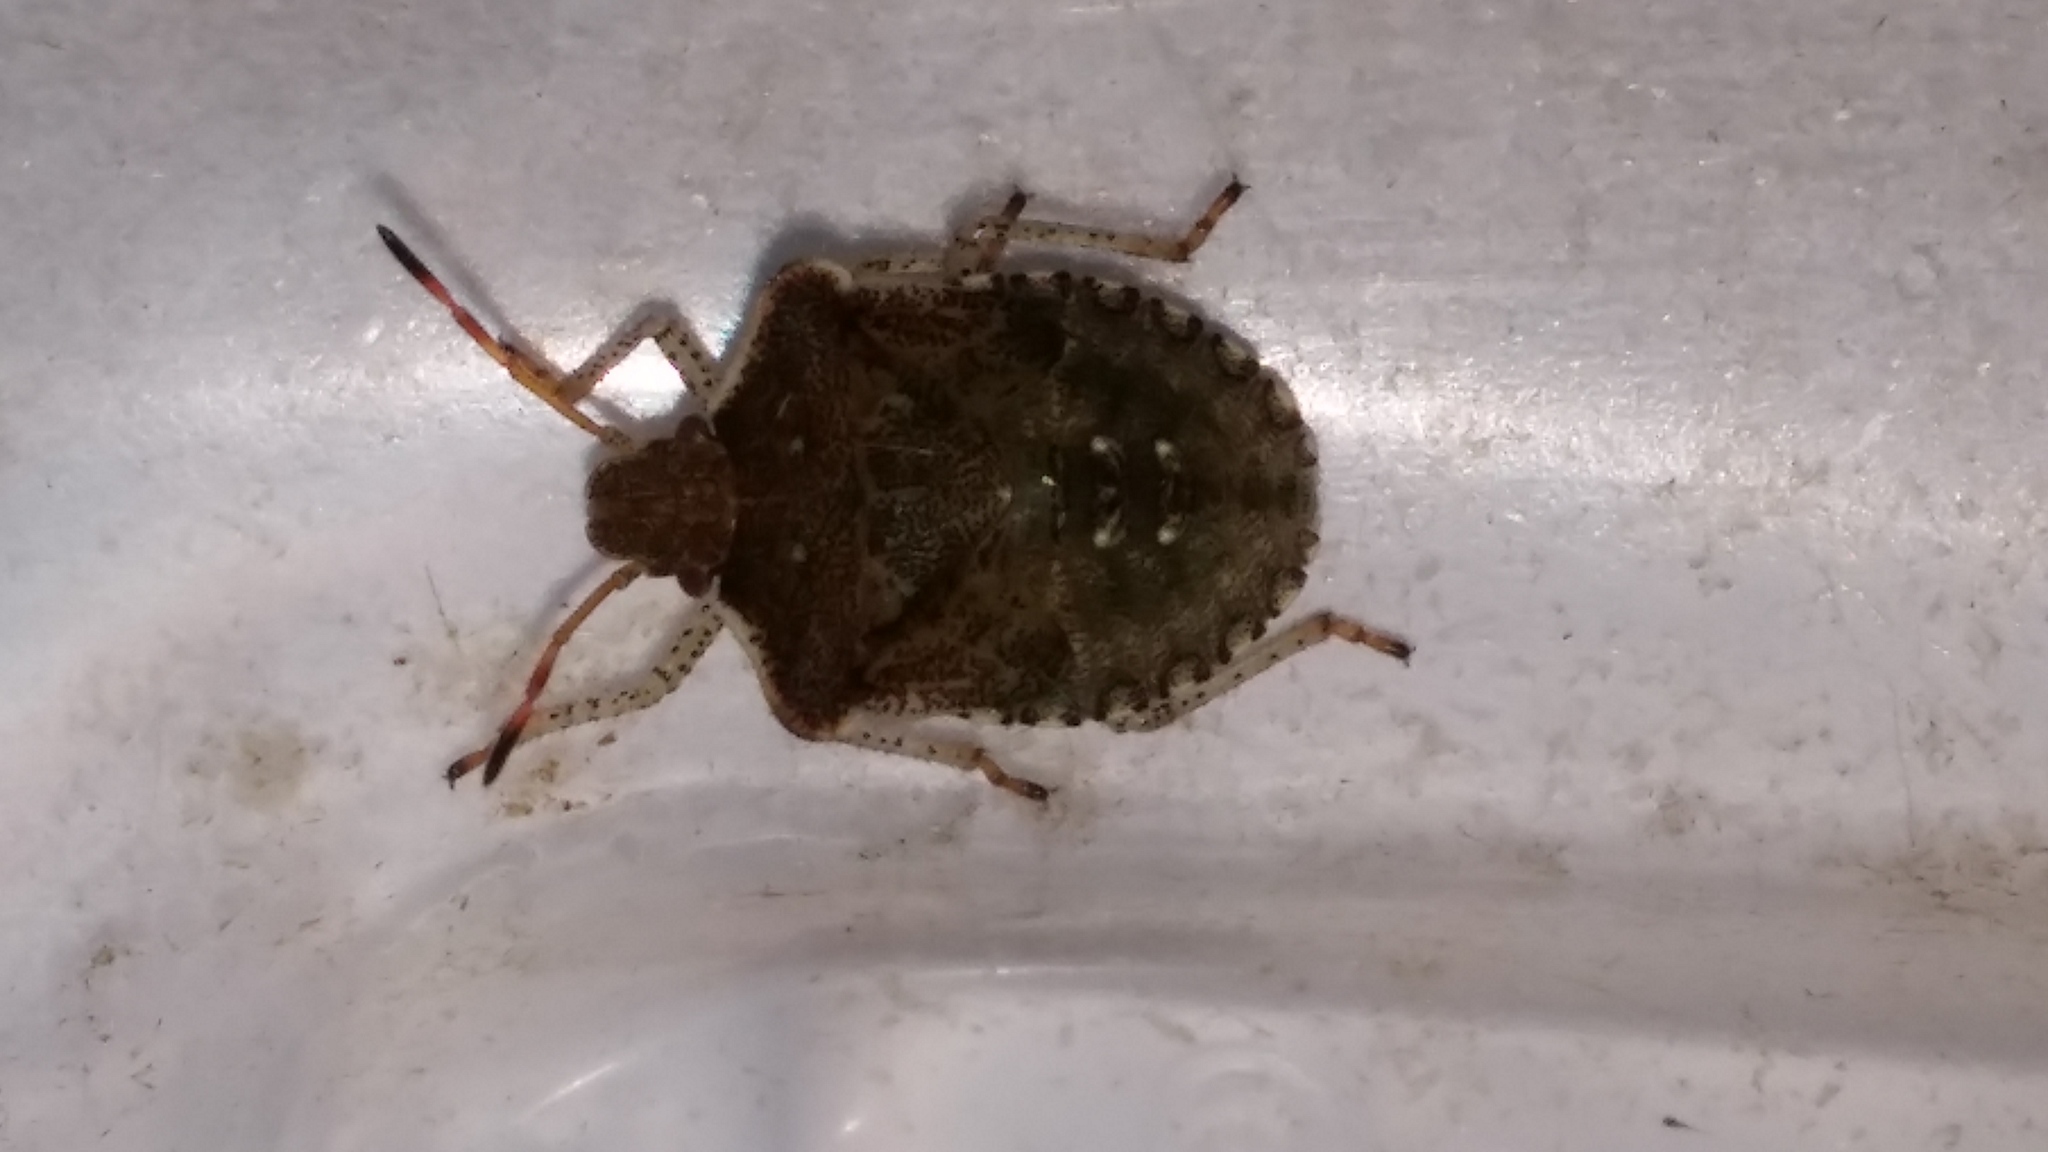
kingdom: Animalia
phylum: Arthropoda
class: Insecta
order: Hemiptera
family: Pentatomidae
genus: Euschistus
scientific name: Euschistus tristigmus
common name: Dusky stink bug
